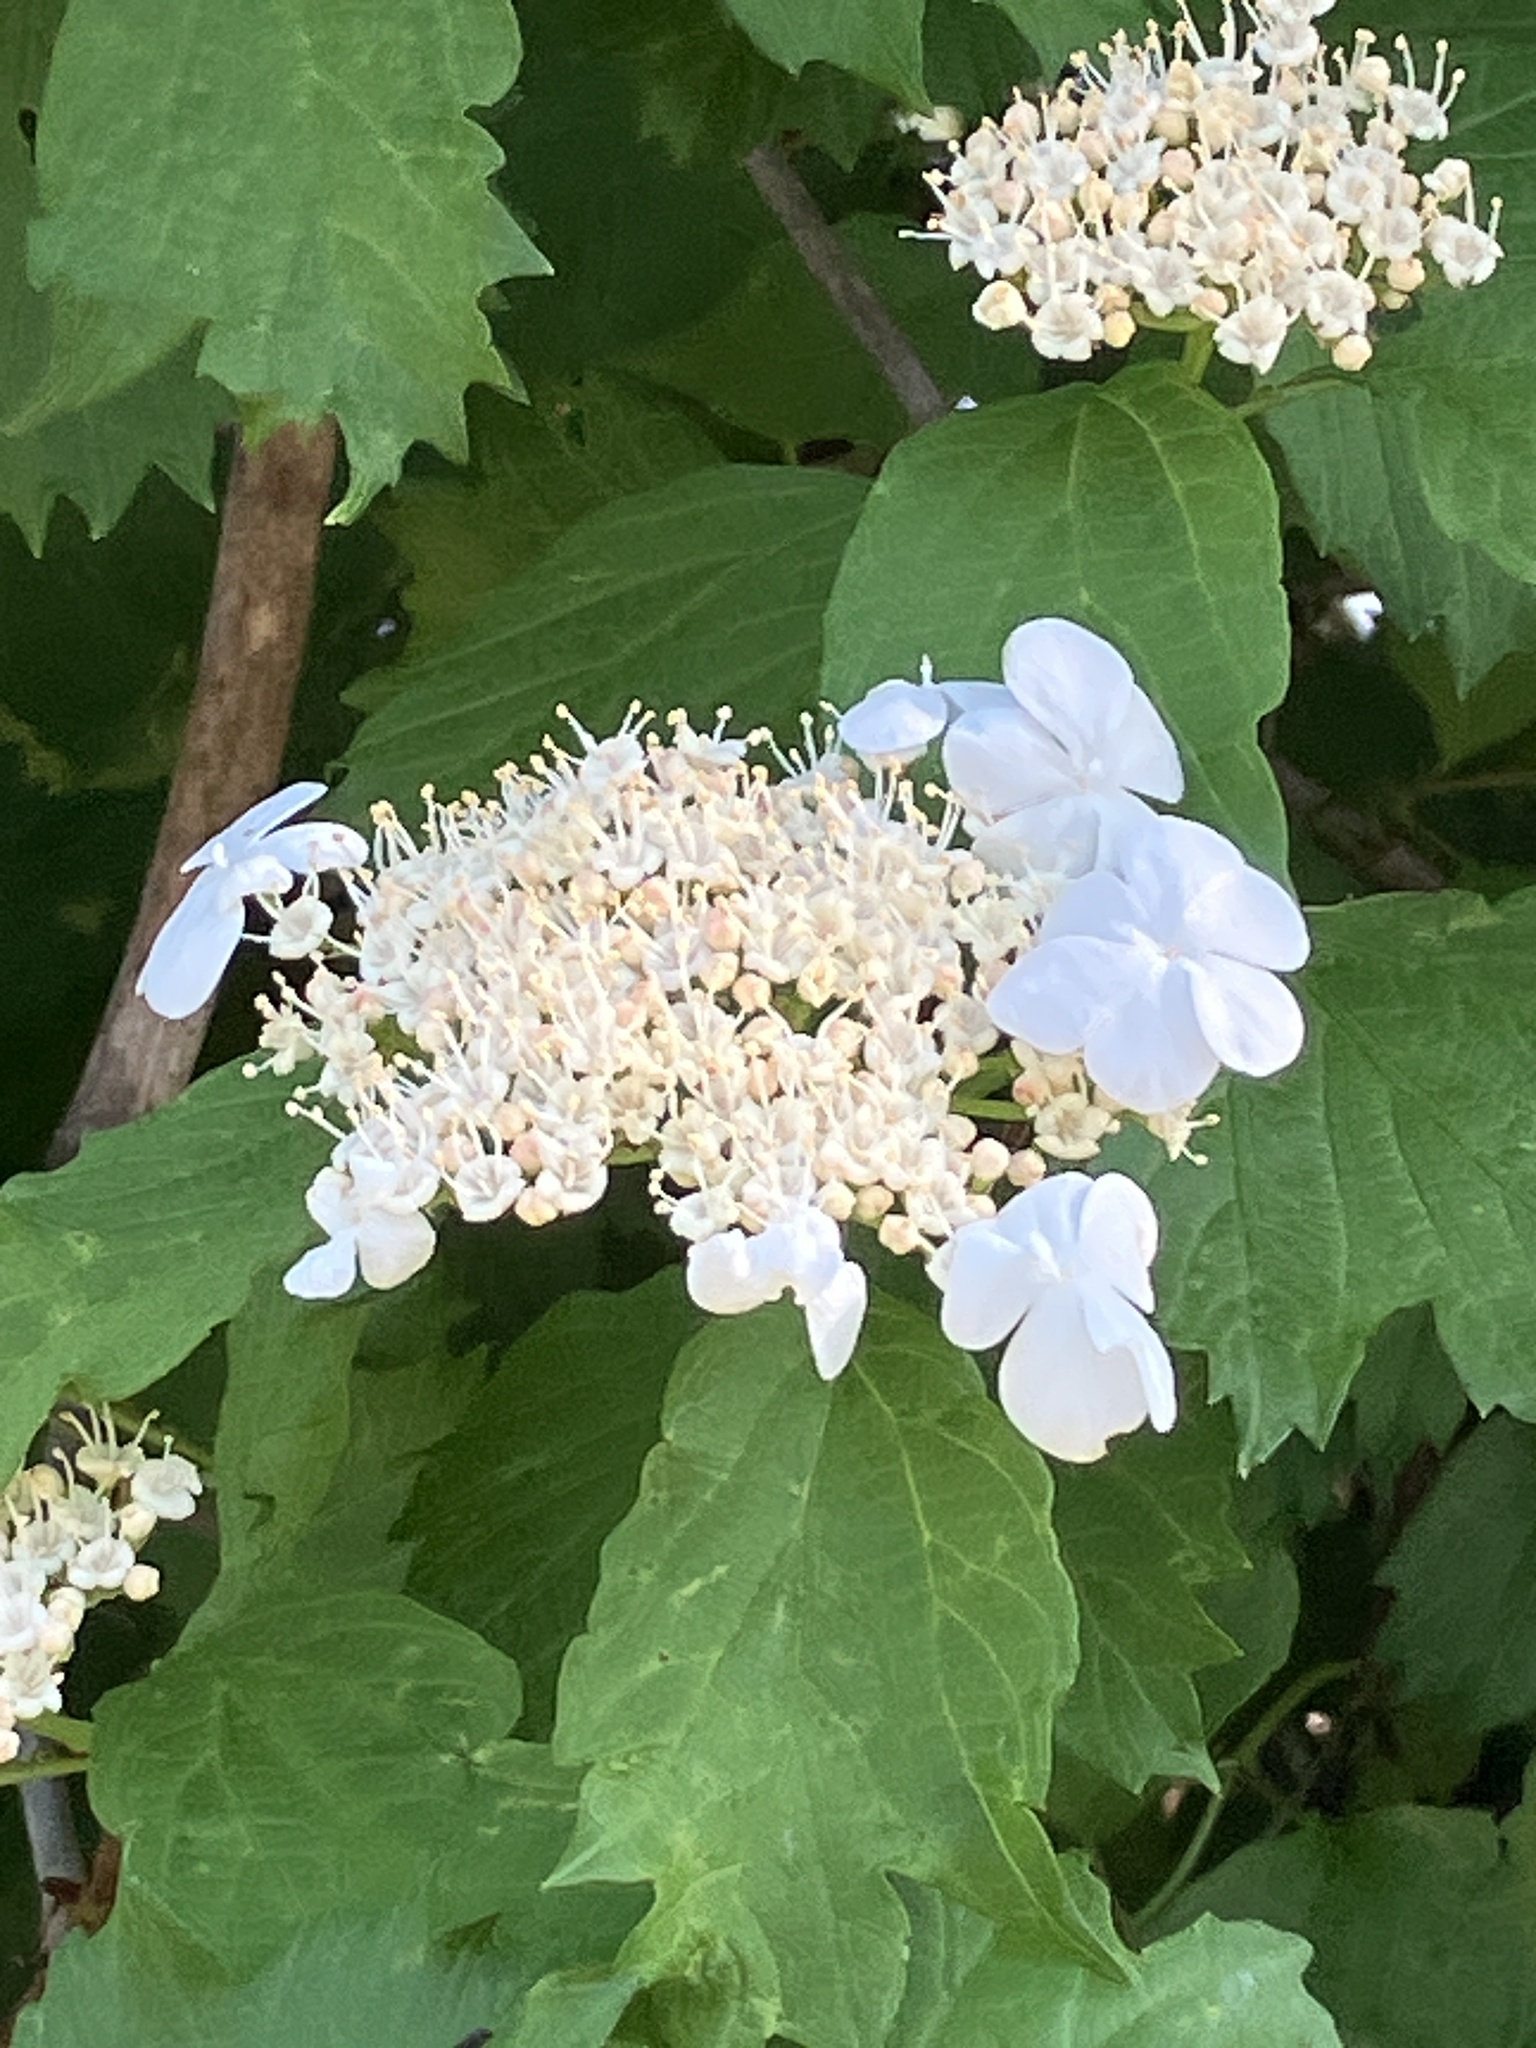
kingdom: Plantae
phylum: Tracheophyta
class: Magnoliopsida
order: Dipsacales
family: Viburnaceae
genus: Viburnum
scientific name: Viburnum opulus
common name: Guelder-rose
